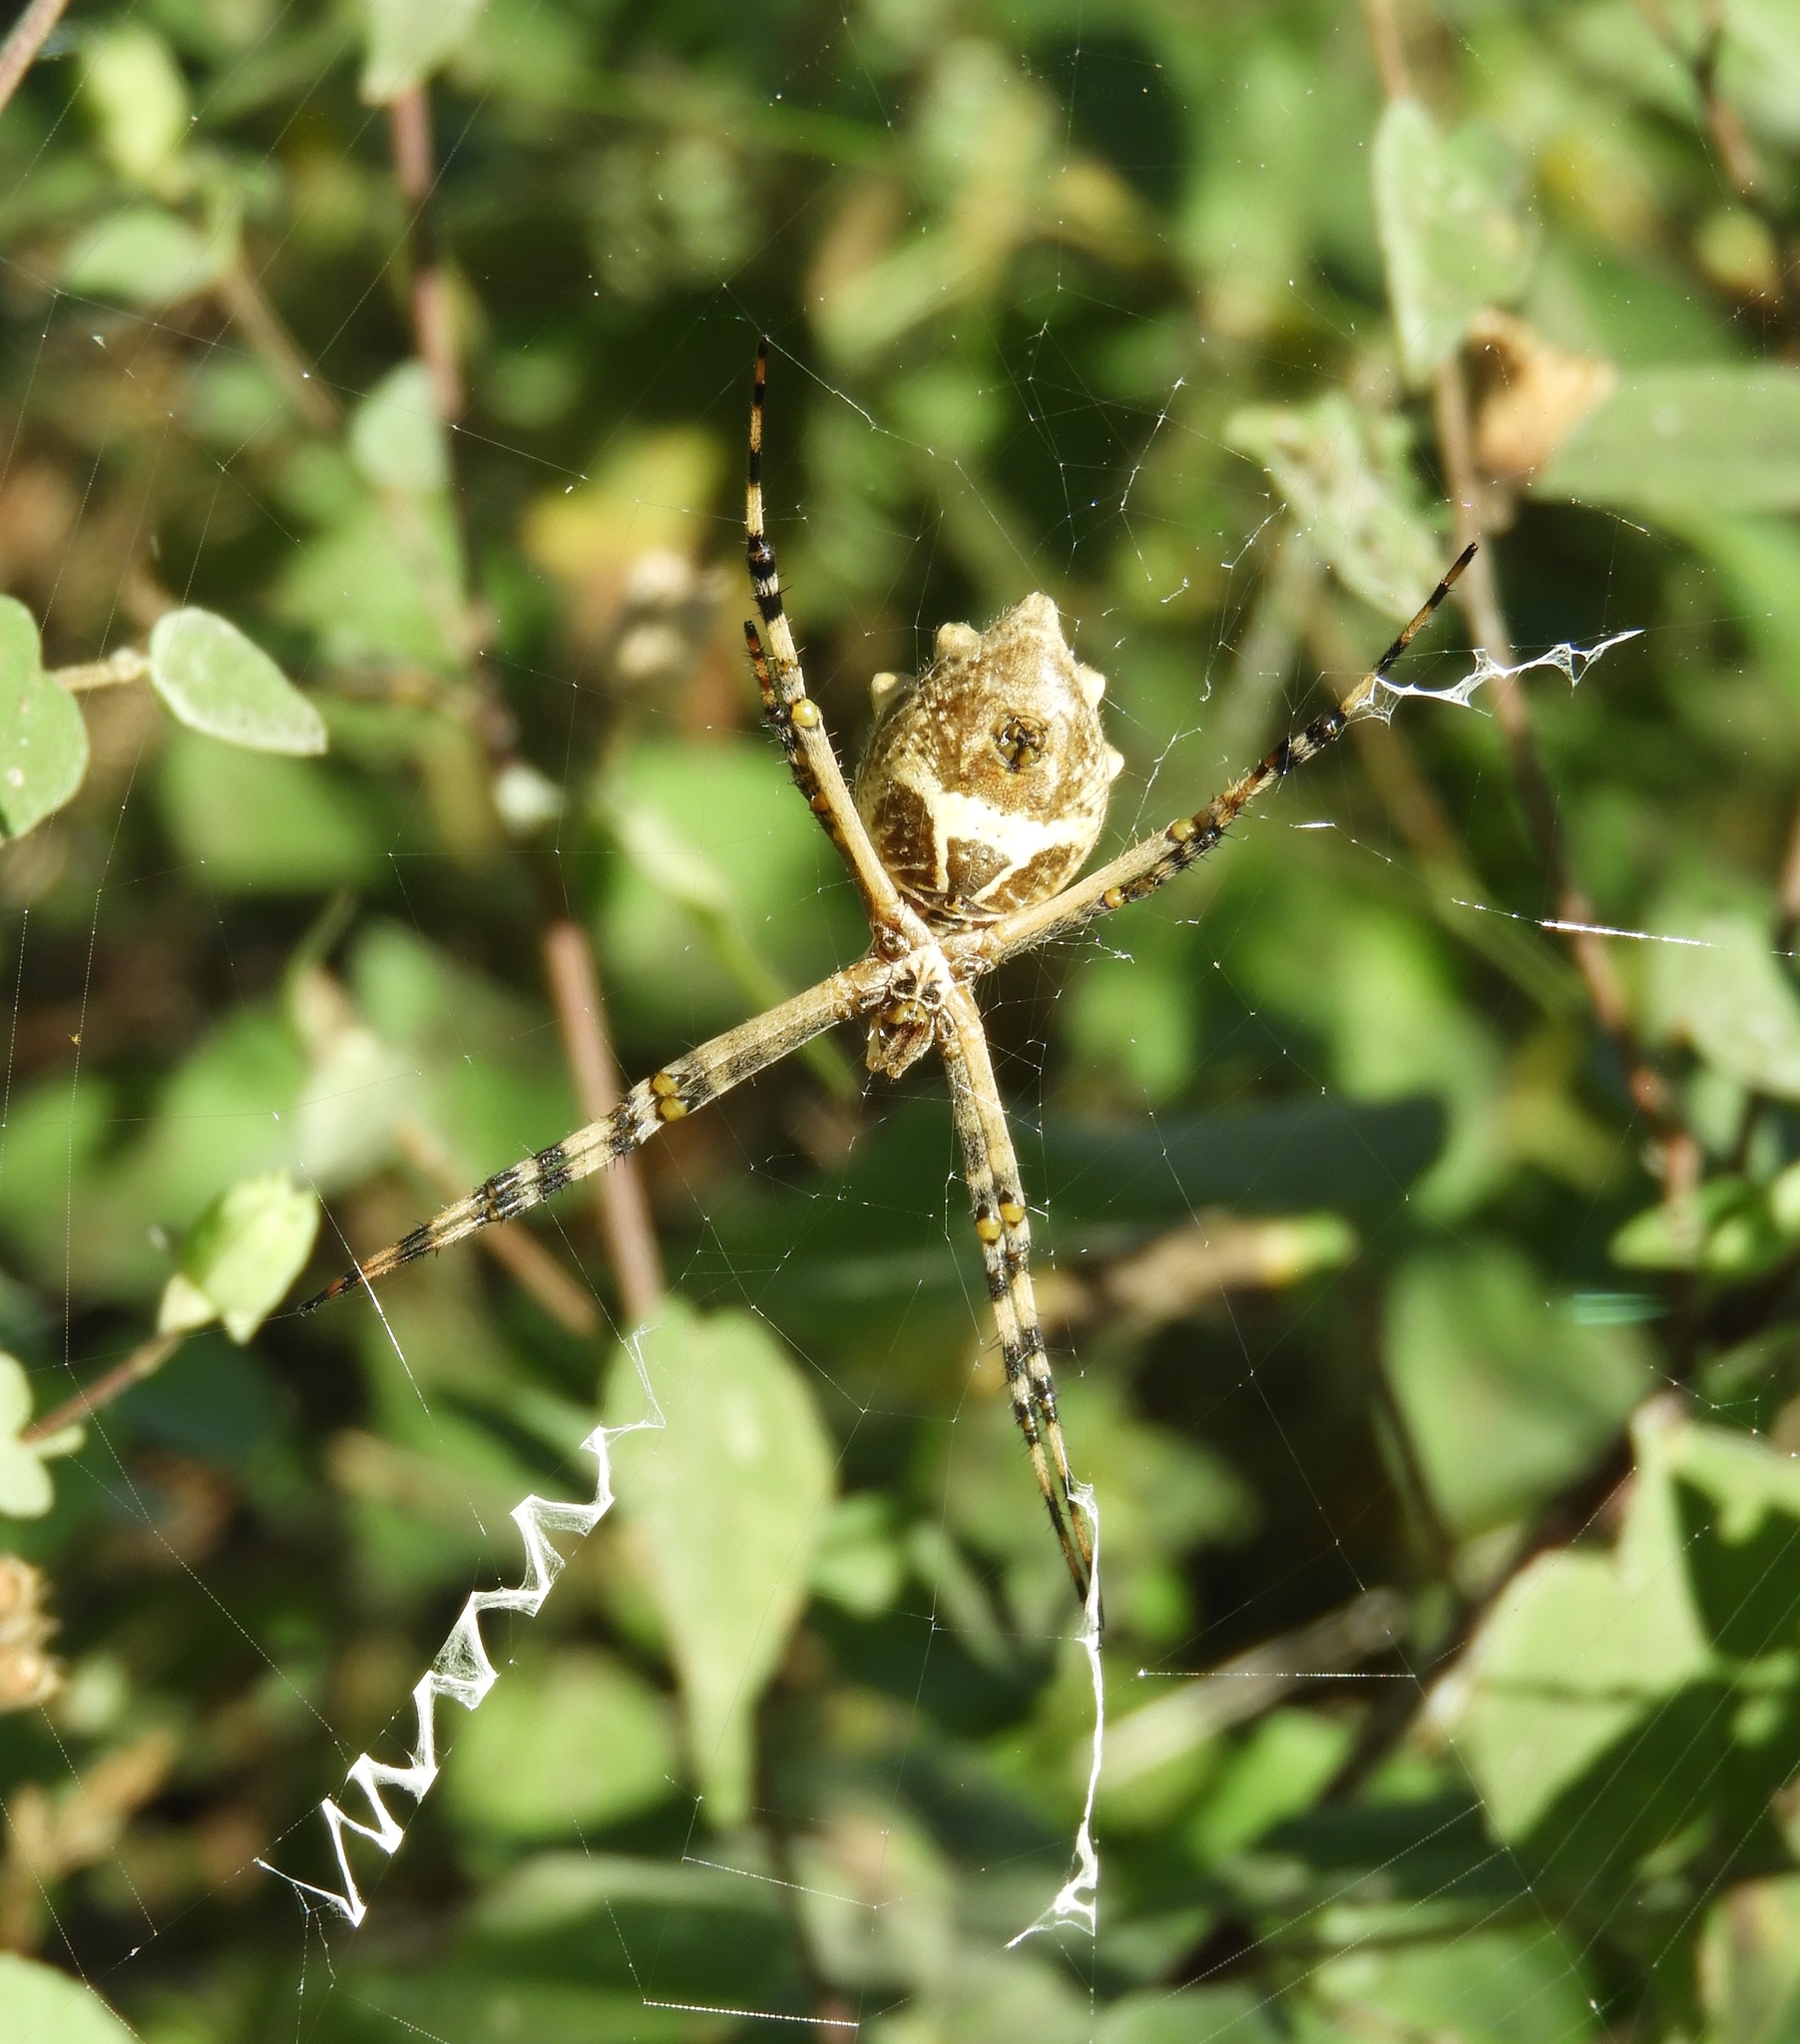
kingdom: Animalia
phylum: Arthropoda
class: Arachnida
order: Araneae
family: Araneidae
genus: Argiope
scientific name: Argiope argentata
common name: Orb weavers
